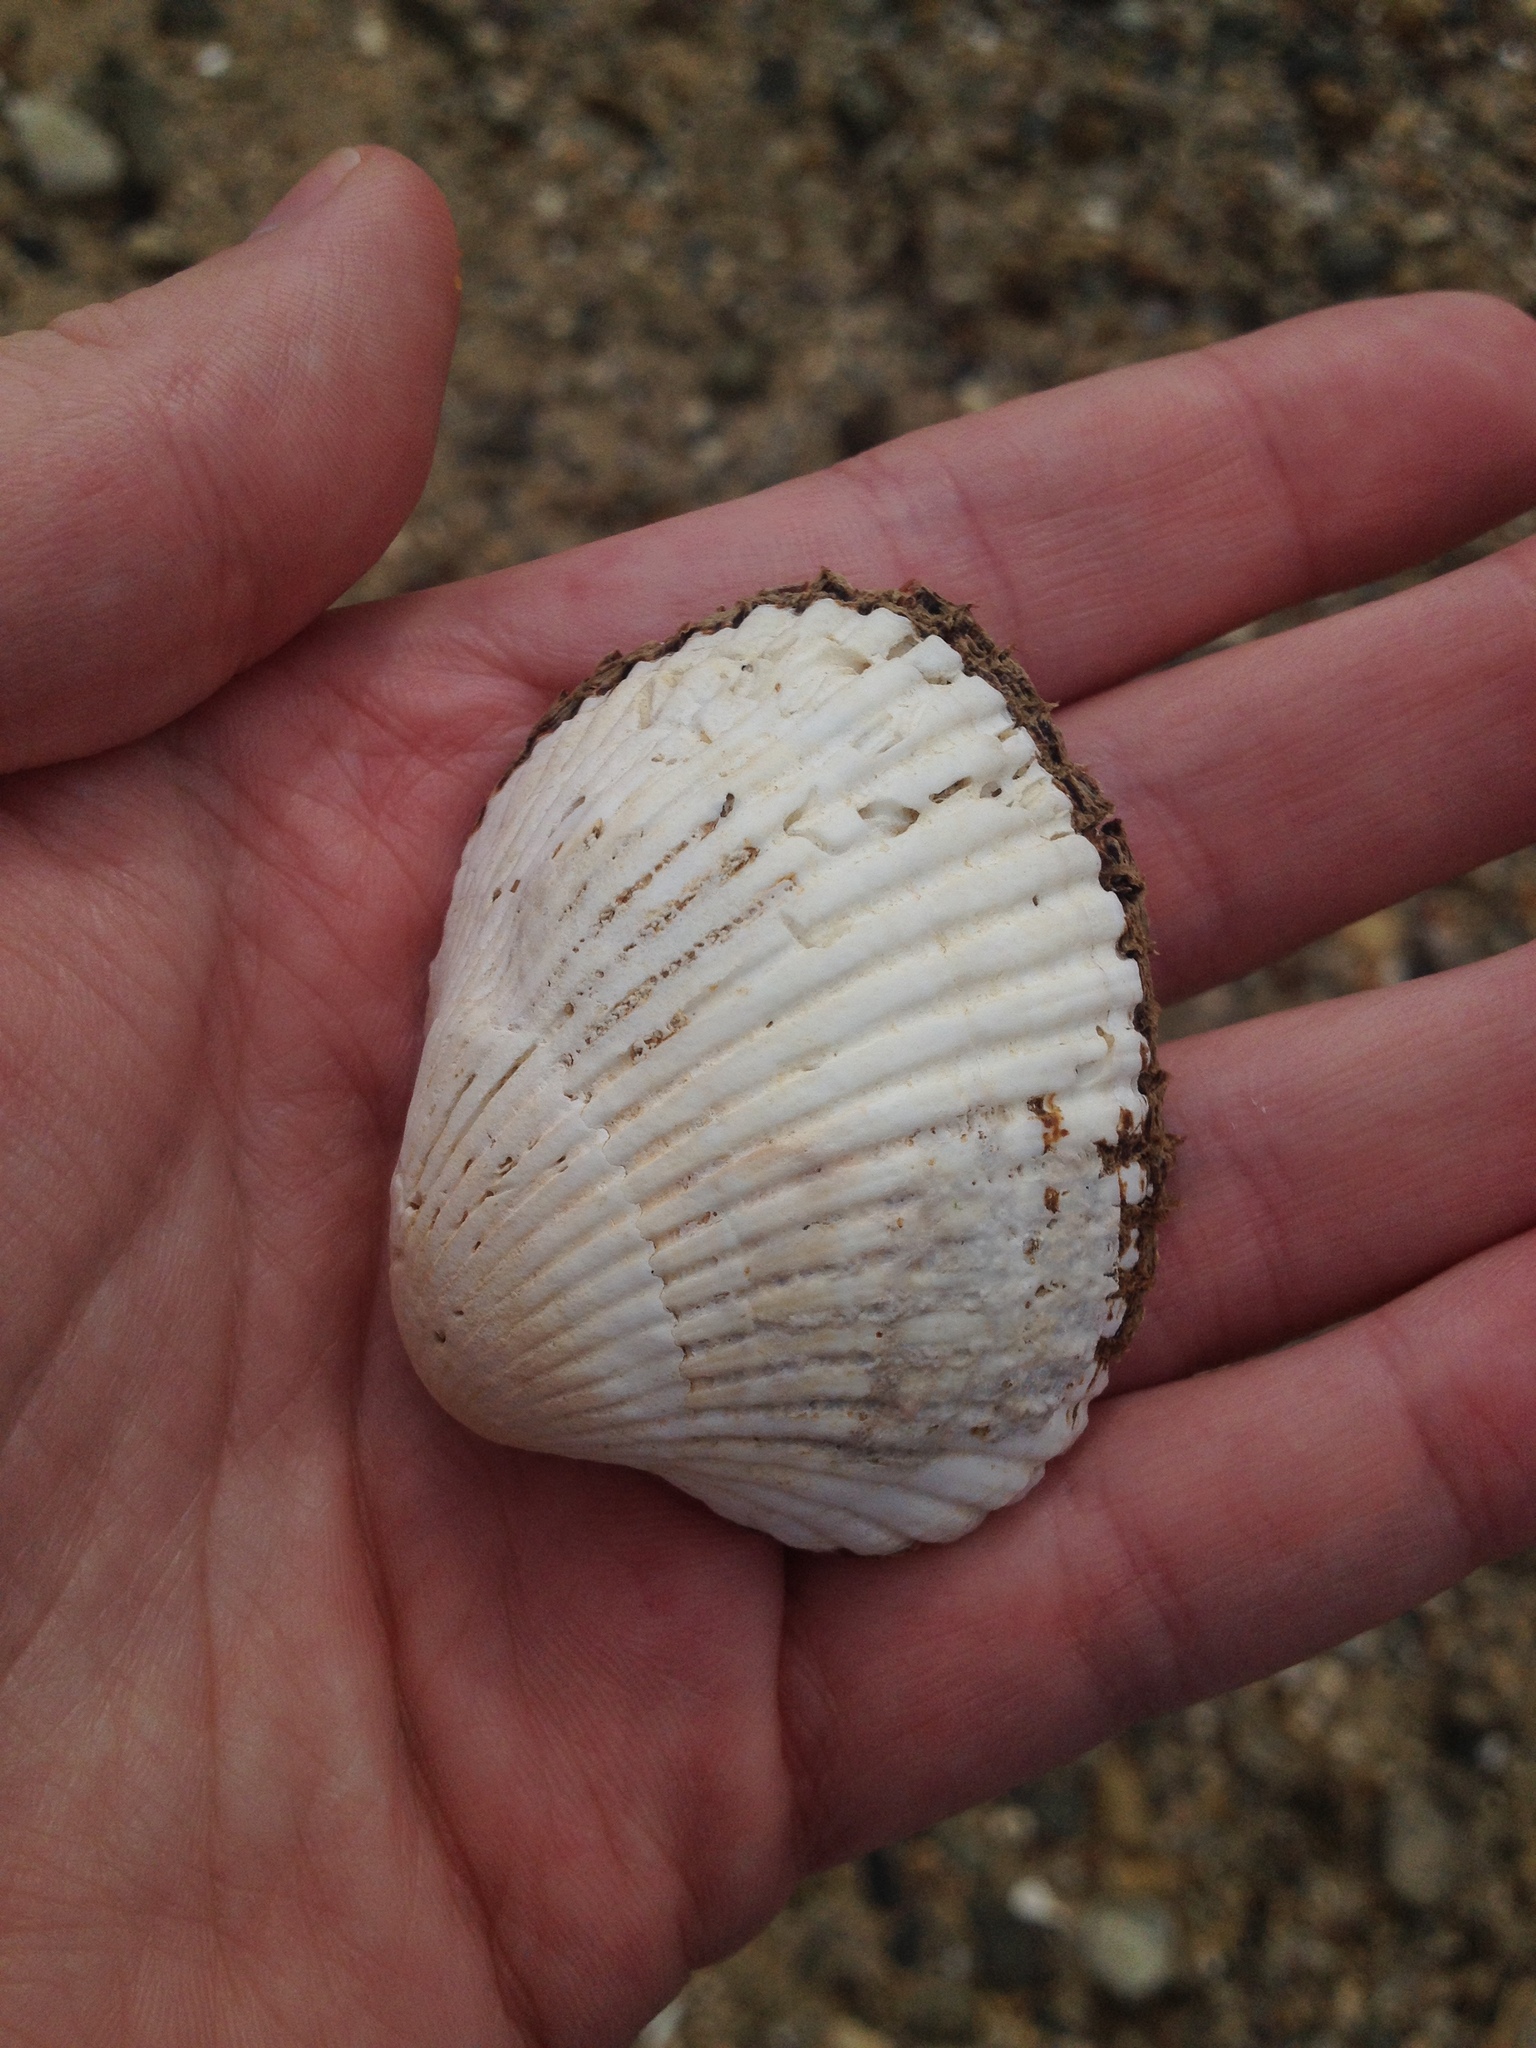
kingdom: Animalia
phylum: Mollusca
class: Bivalvia
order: Arcida
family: Arcidae
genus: Lunarca
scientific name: Lunarca ovalis
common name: Blood ark
